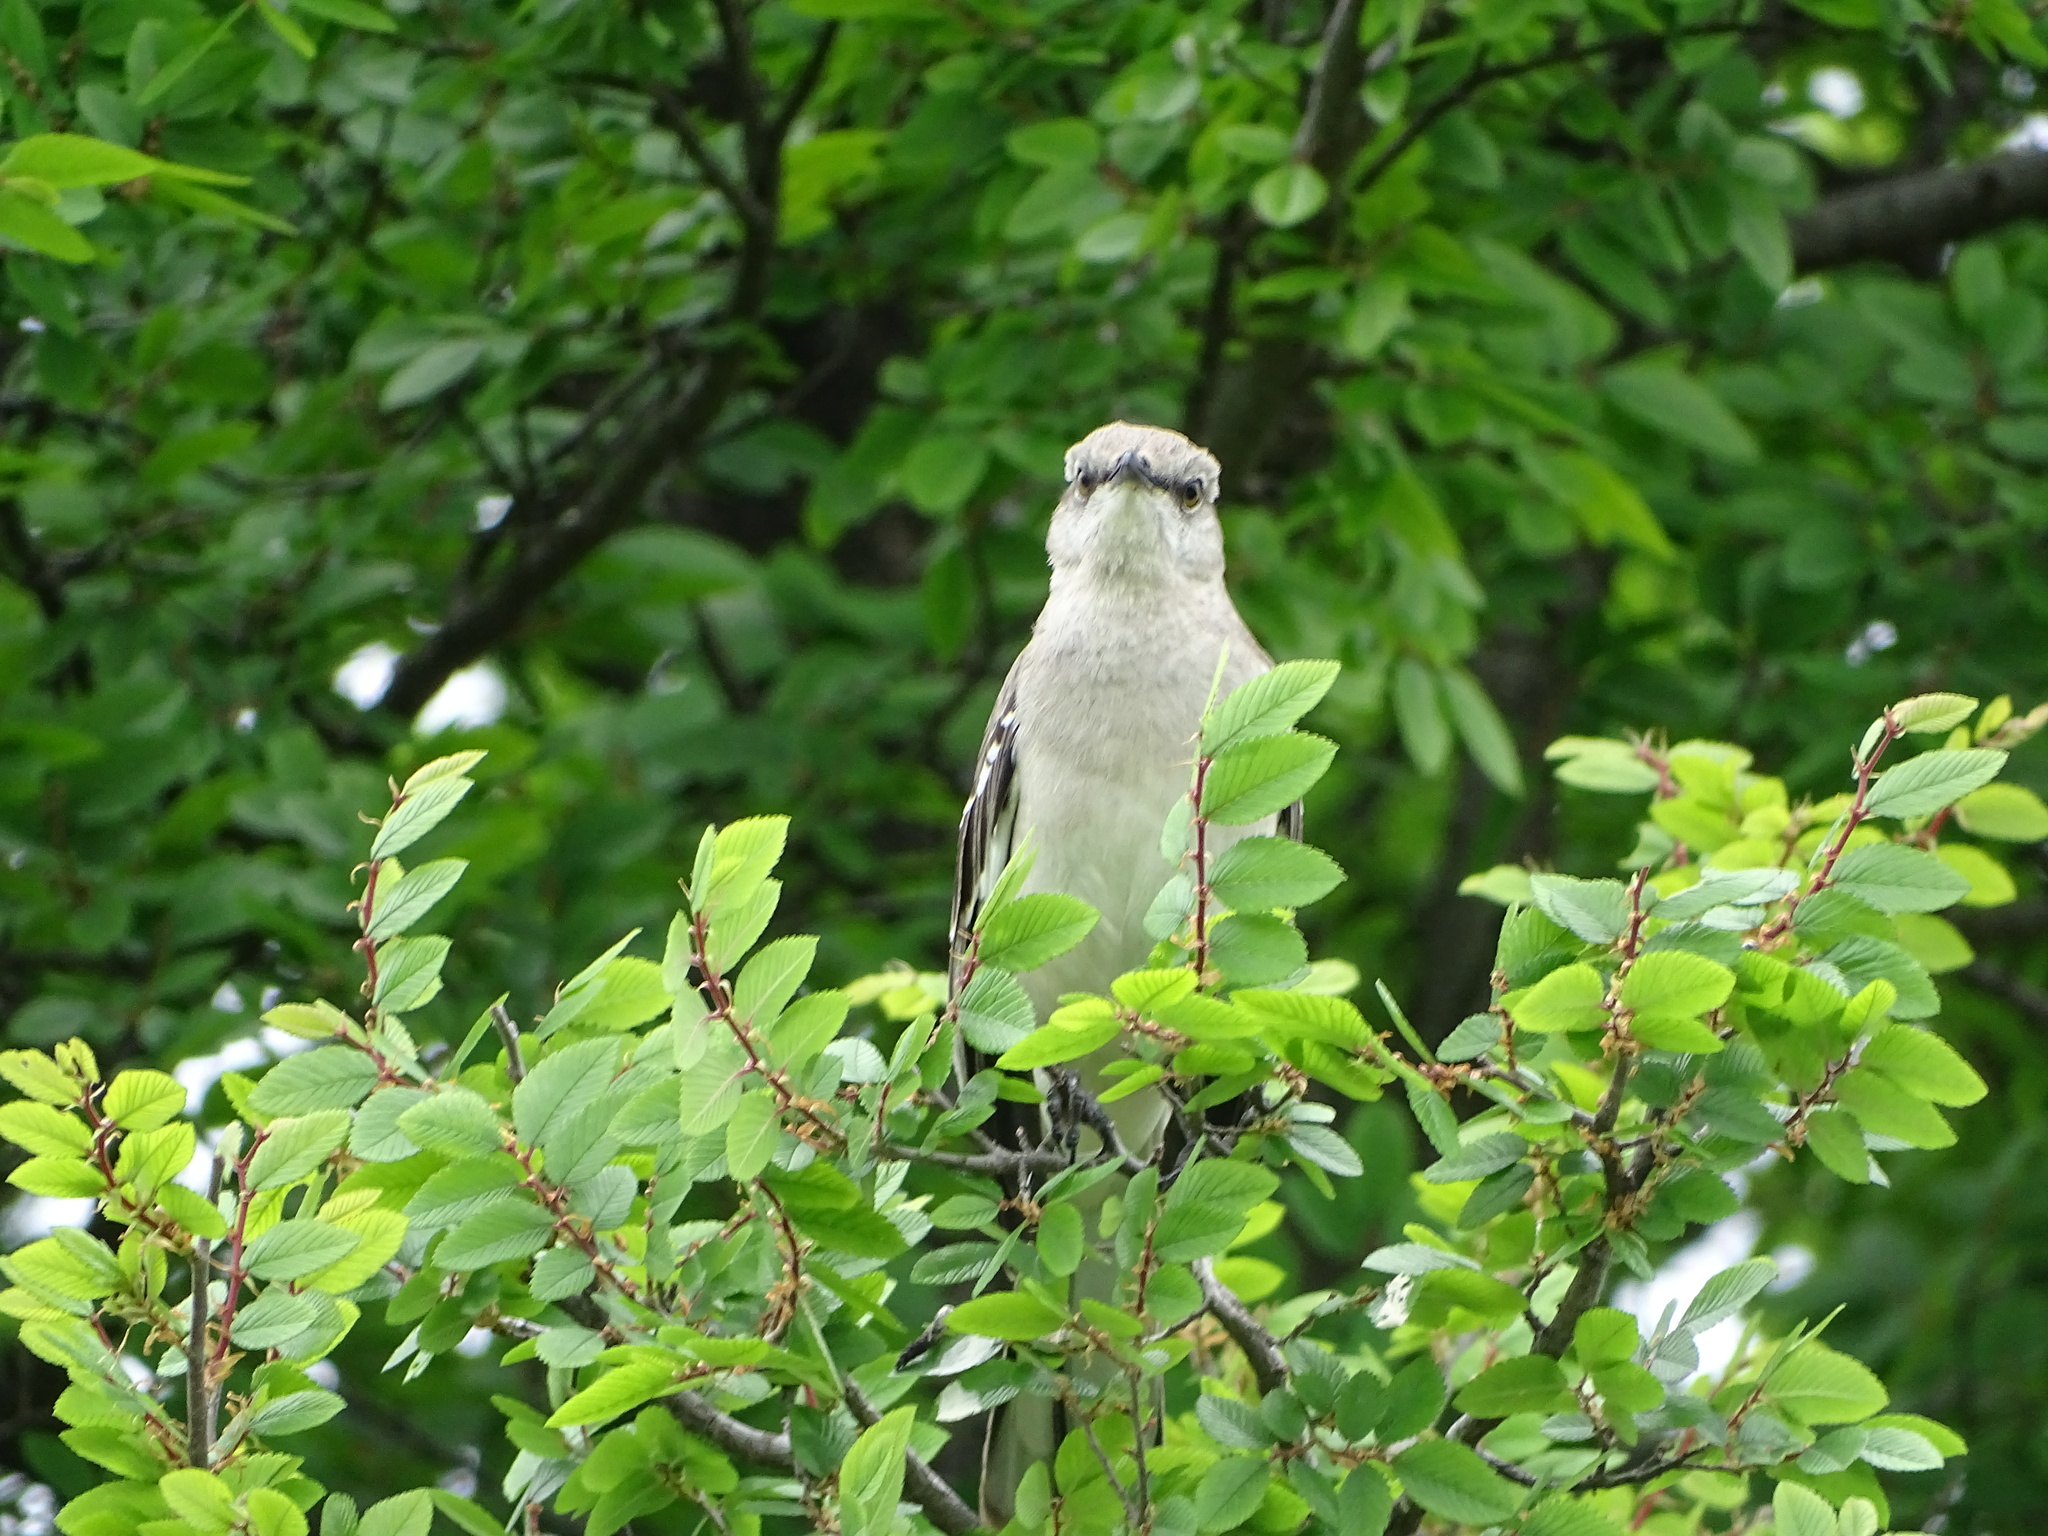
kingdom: Animalia
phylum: Chordata
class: Aves
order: Passeriformes
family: Mimidae
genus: Mimus
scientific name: Mimus polyglottos
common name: Northern mockingbird
